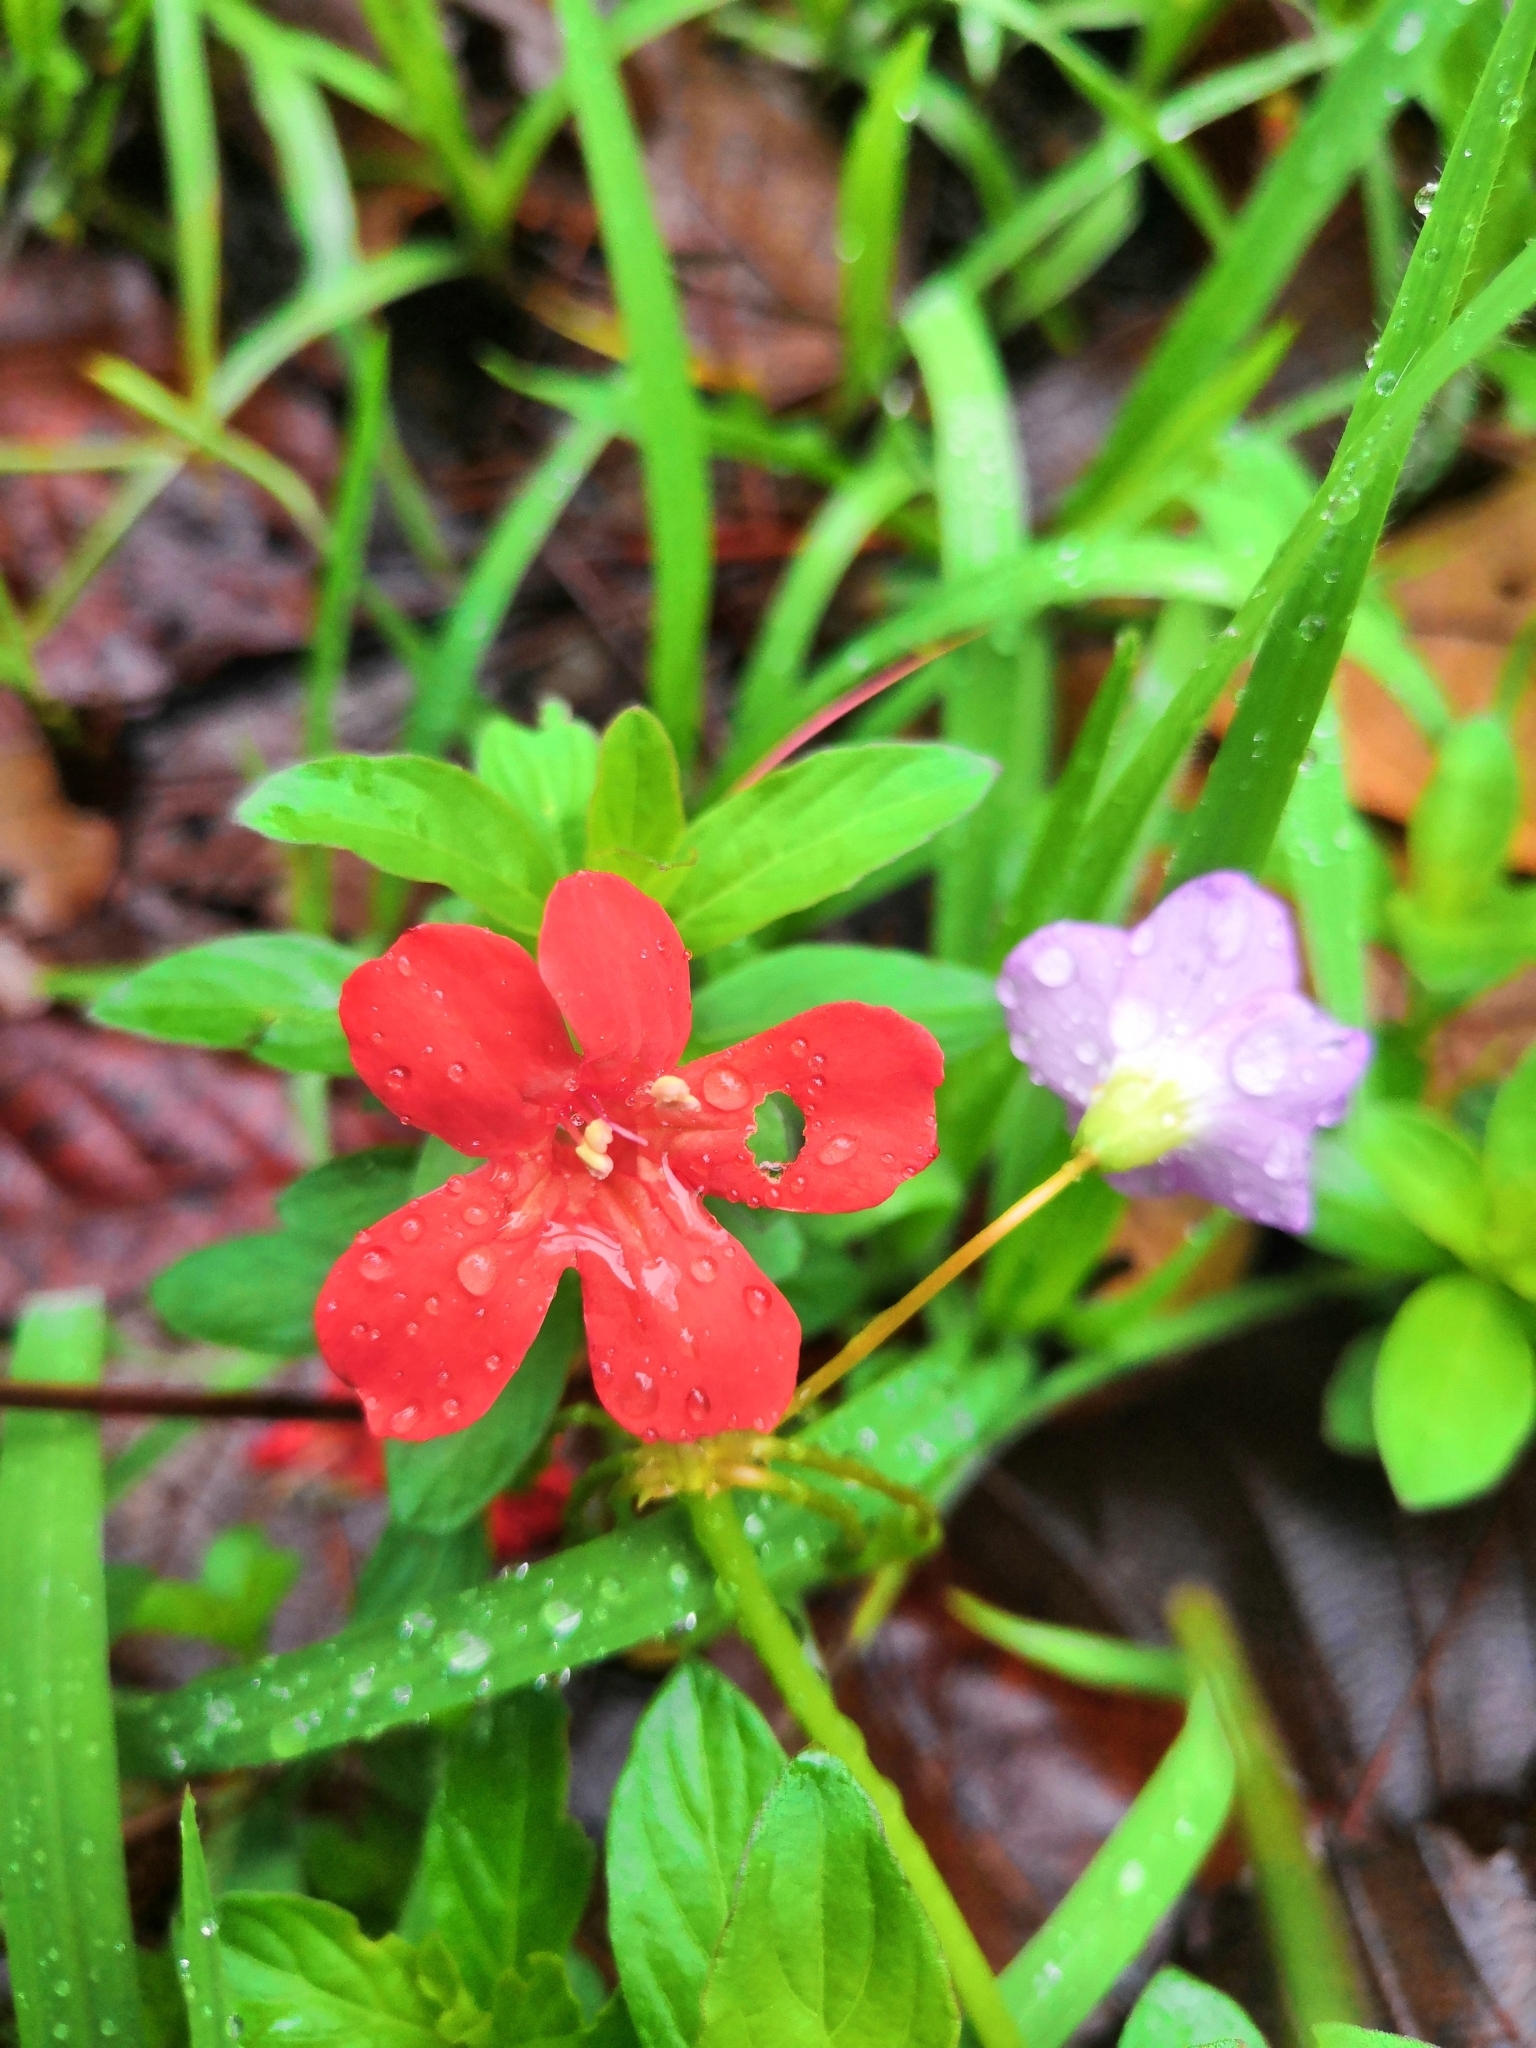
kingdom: Plantae
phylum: Tracheophyta
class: Magnoliopsida
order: Lamiales
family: Acanthaceae
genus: Dyschoriste
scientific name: Dyschoriste mcvaughii
